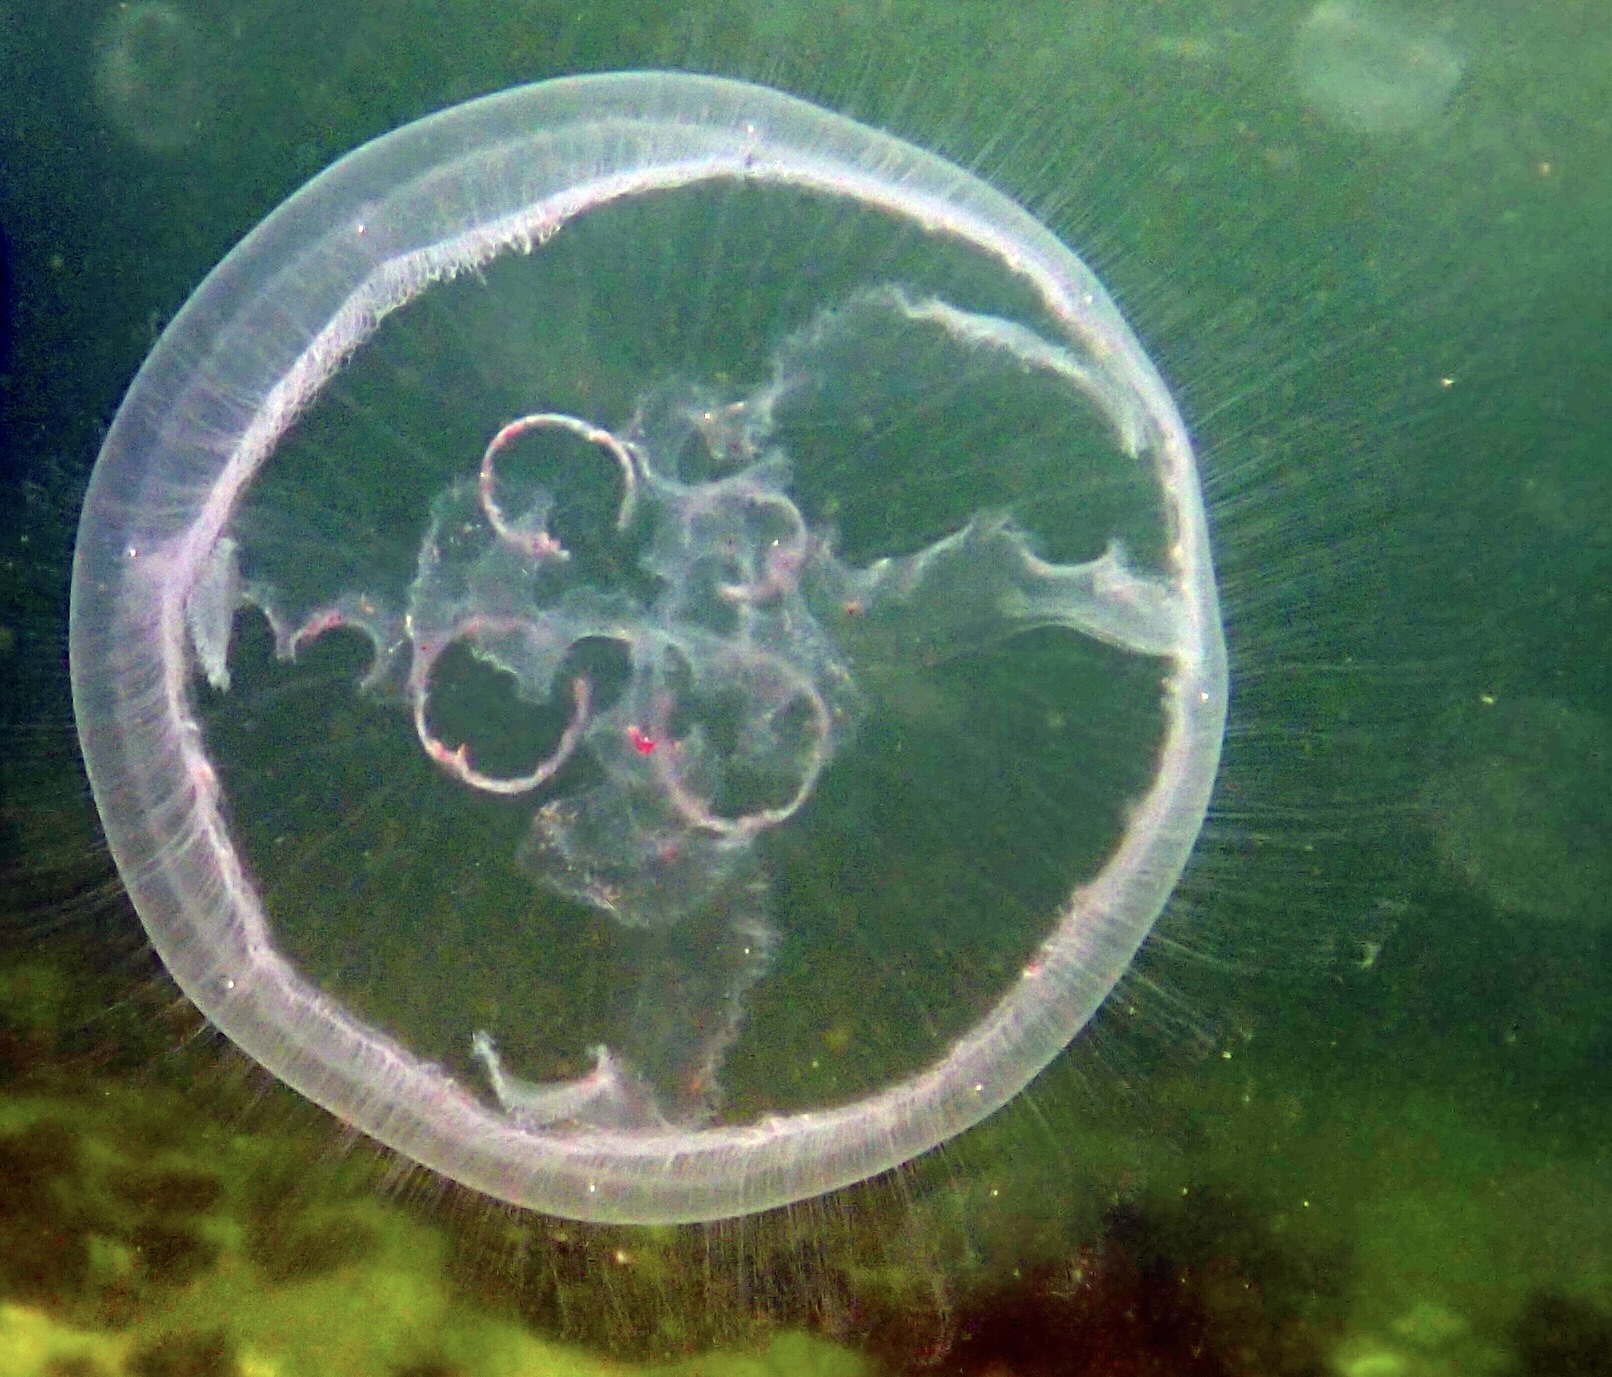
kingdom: Animalia
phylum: Cnidaria
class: Scyphozoa
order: Semaeostomeae
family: Ulmaridae
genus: Aurelia
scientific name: Aurelia aurita
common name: Moon jellyfish
